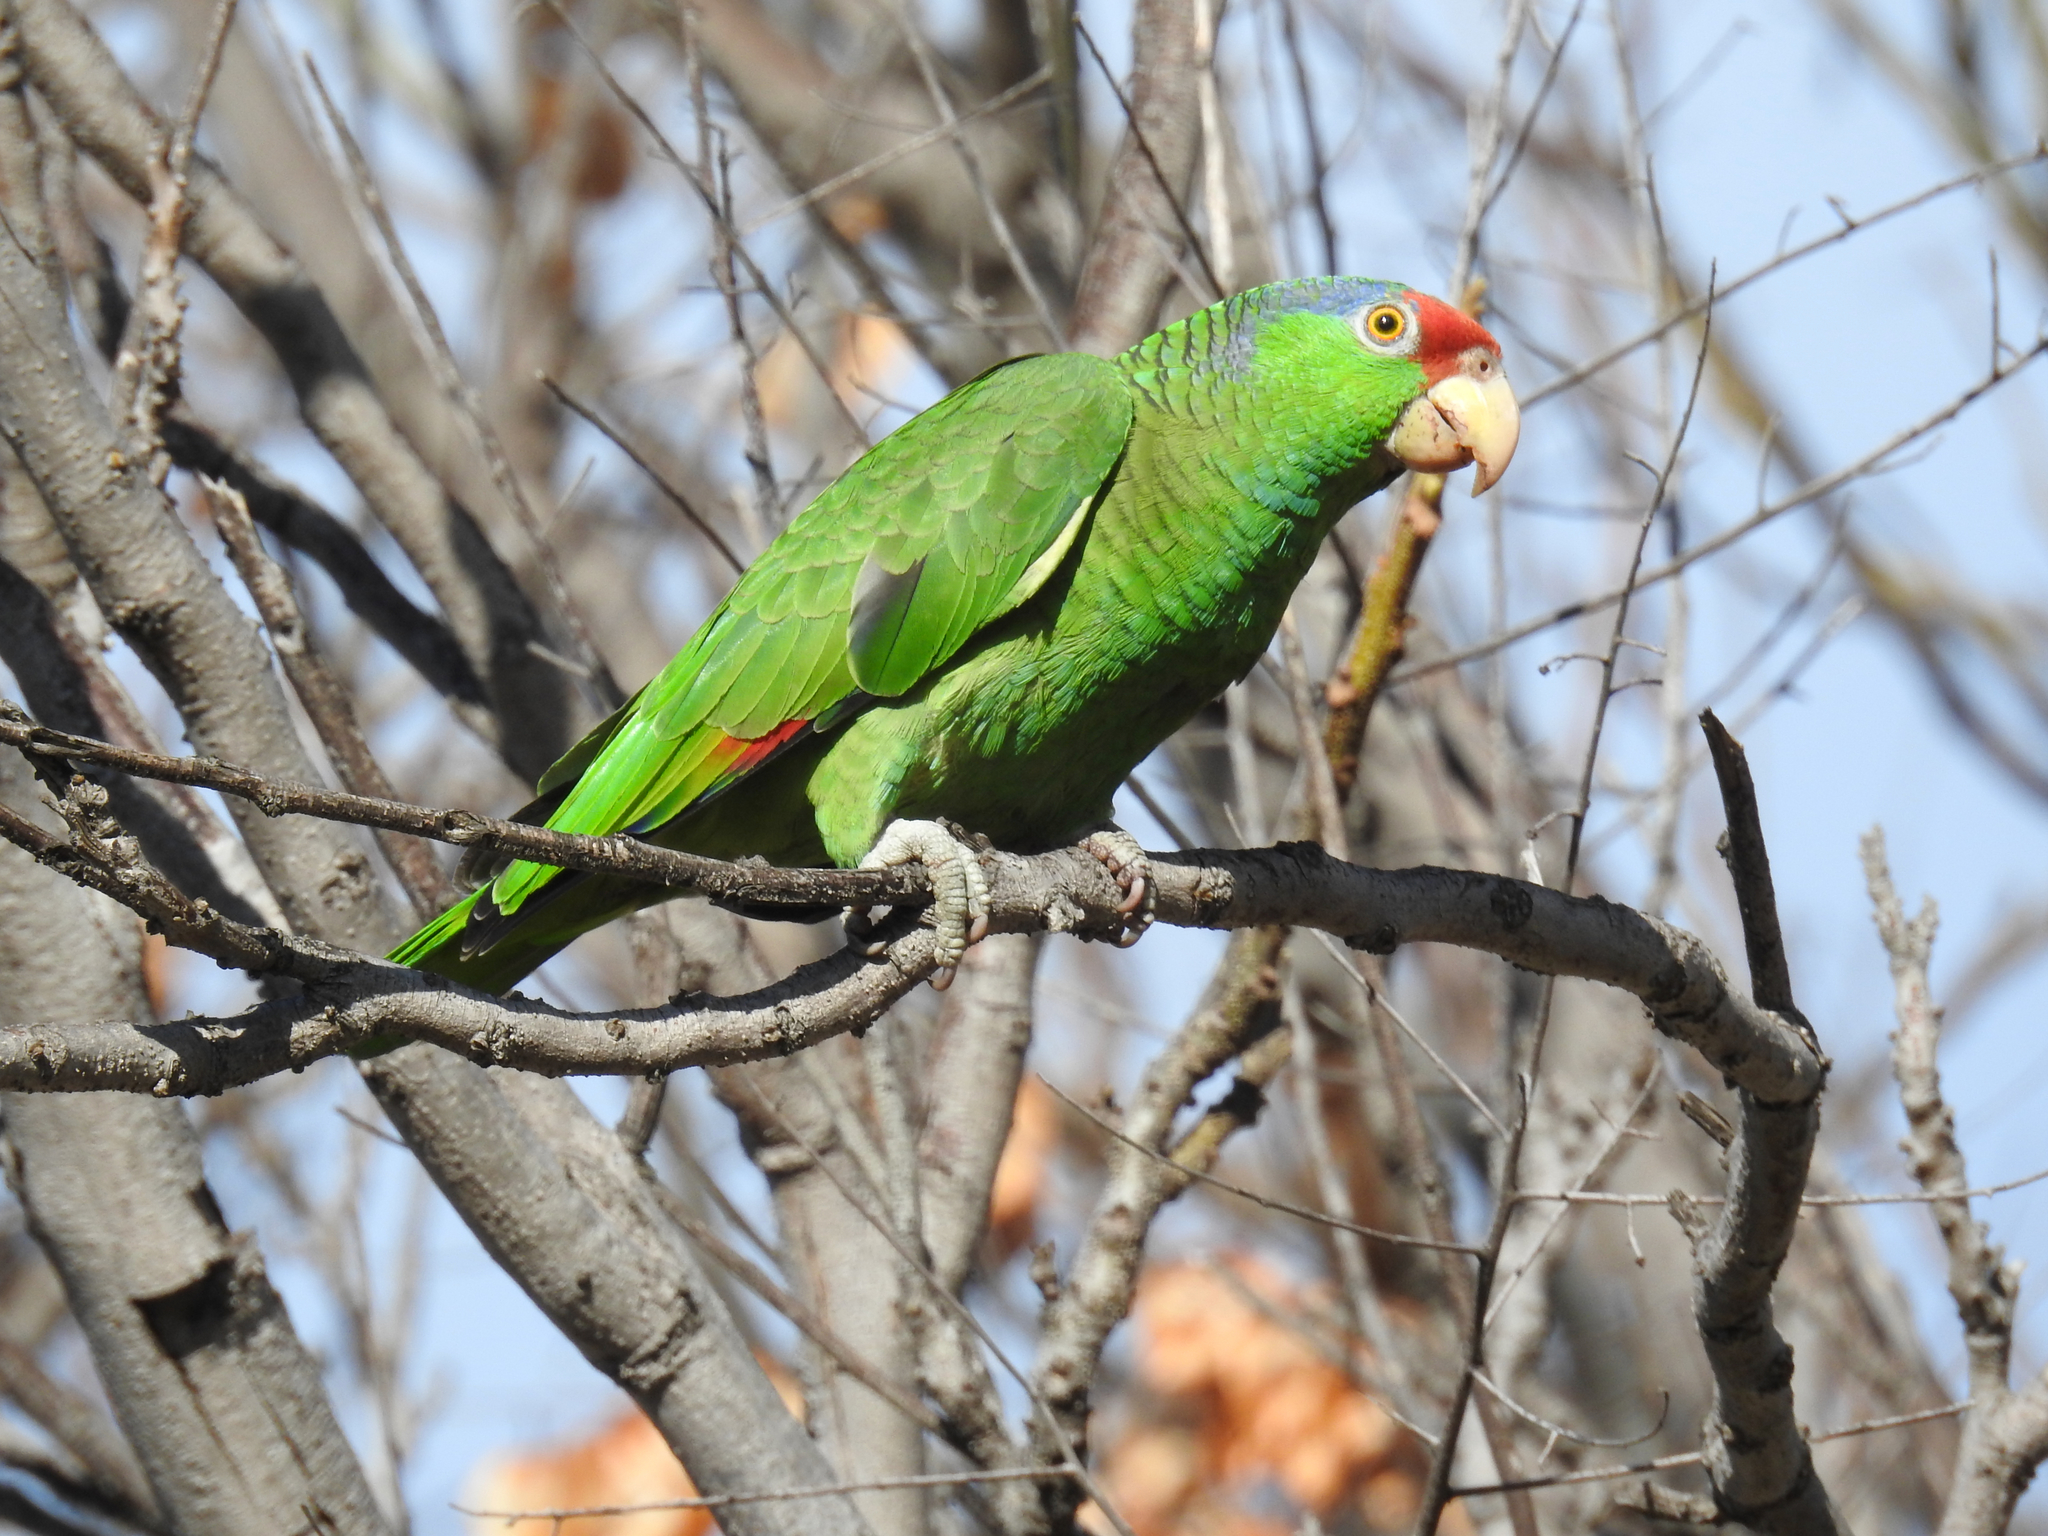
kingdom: Animalia
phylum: Chordata
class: Aves
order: Psittaciformes
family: Psittacidae
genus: Amazona
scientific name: Amazona viridigenalis
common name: Red-crowned amazon
